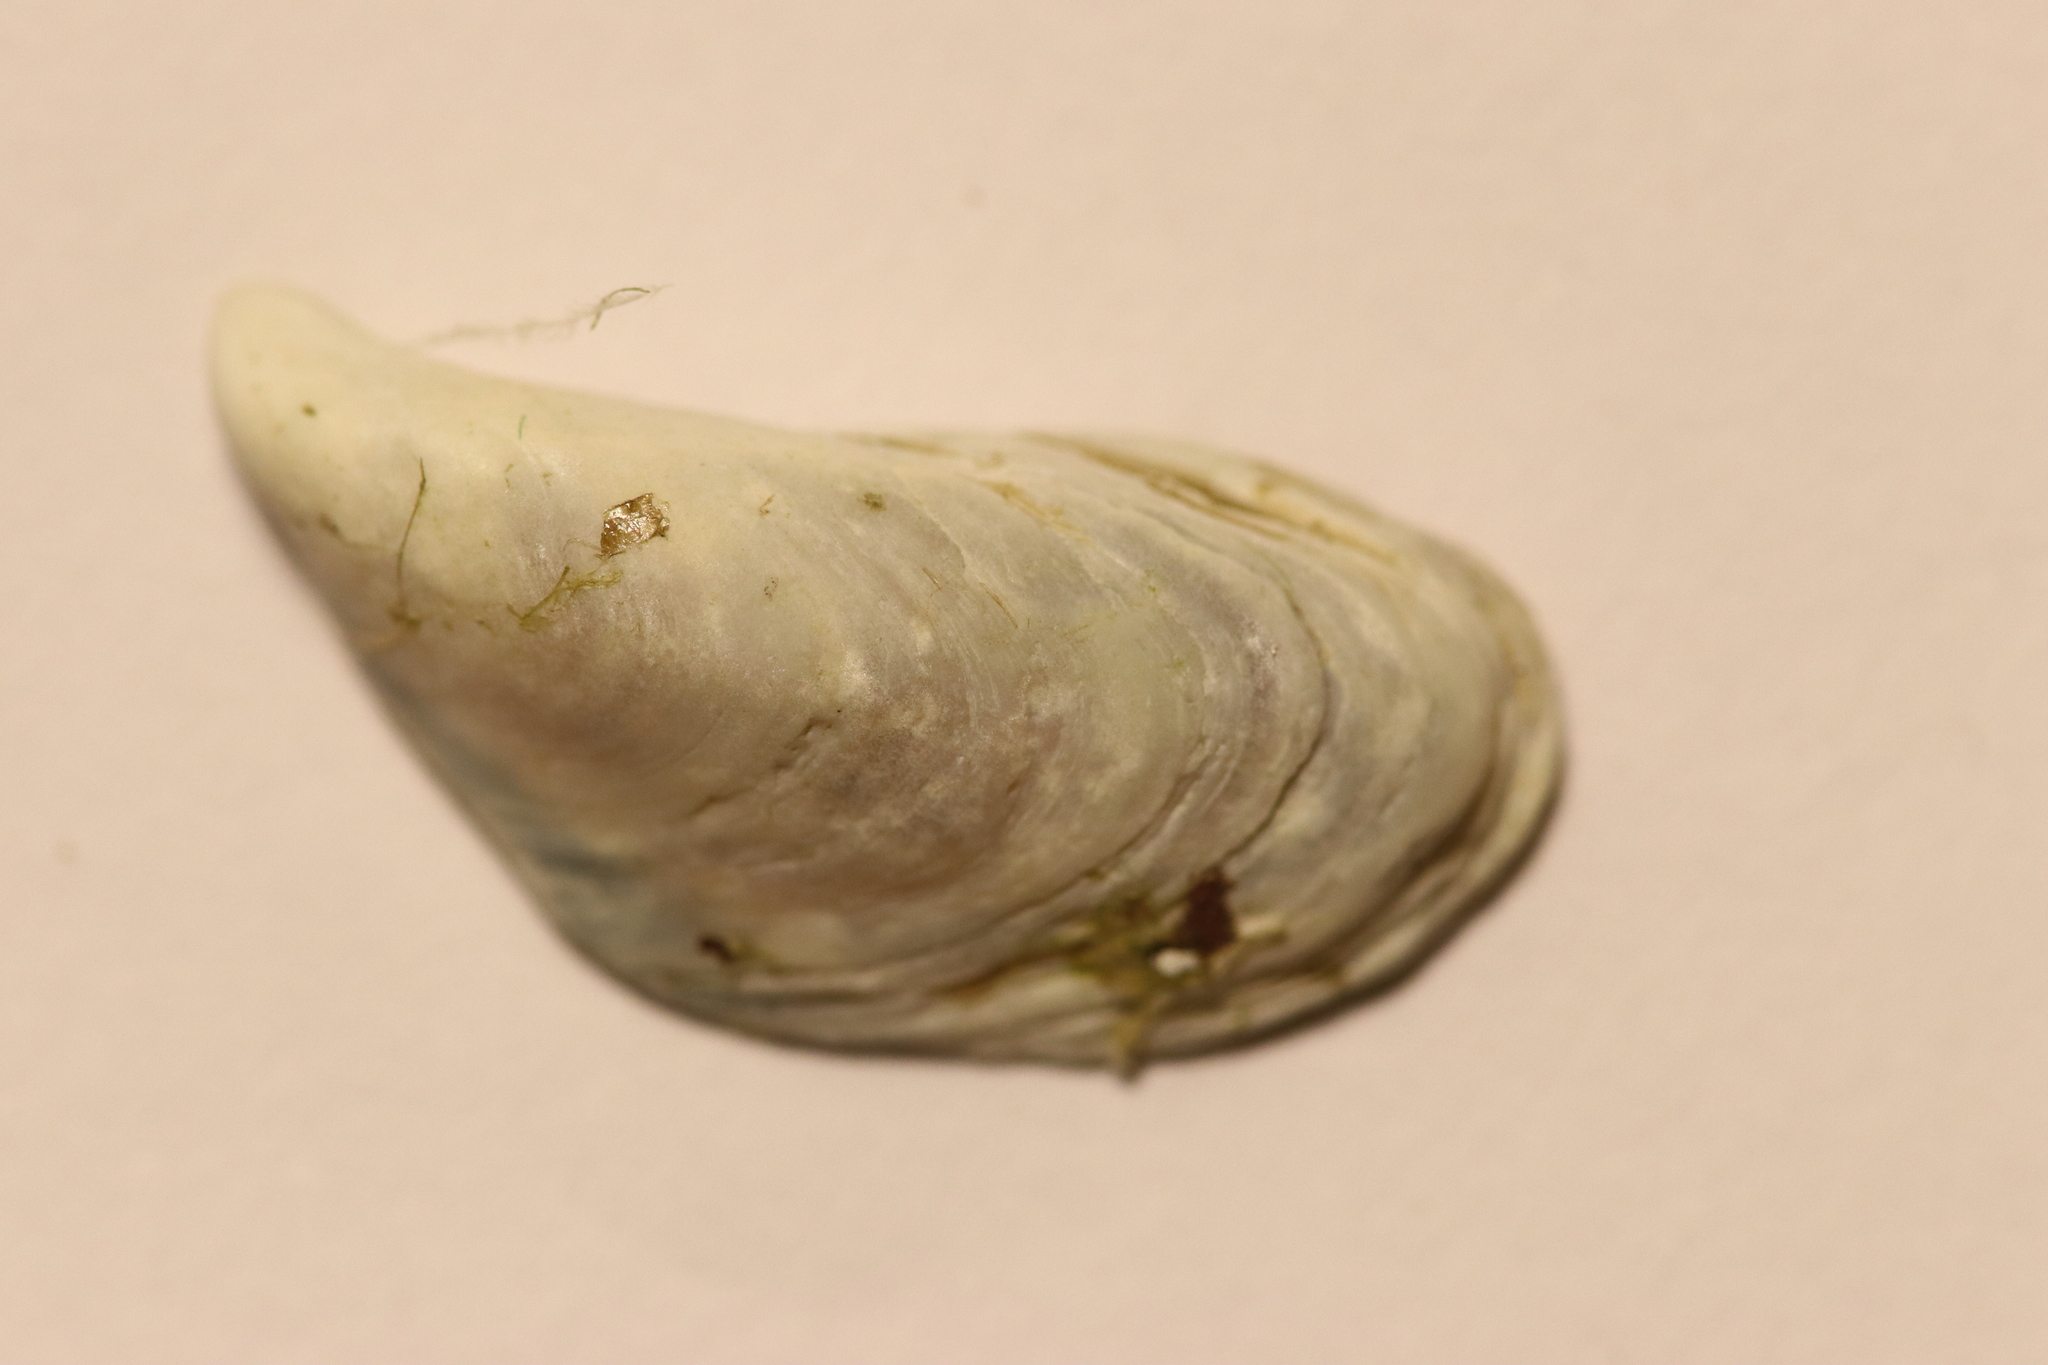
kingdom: Animalia
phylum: Mollusca
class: Bivalvia
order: Myida
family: Dreissenidae
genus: Dreissena
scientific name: Dreissena bugensis
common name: Quagga mussel
